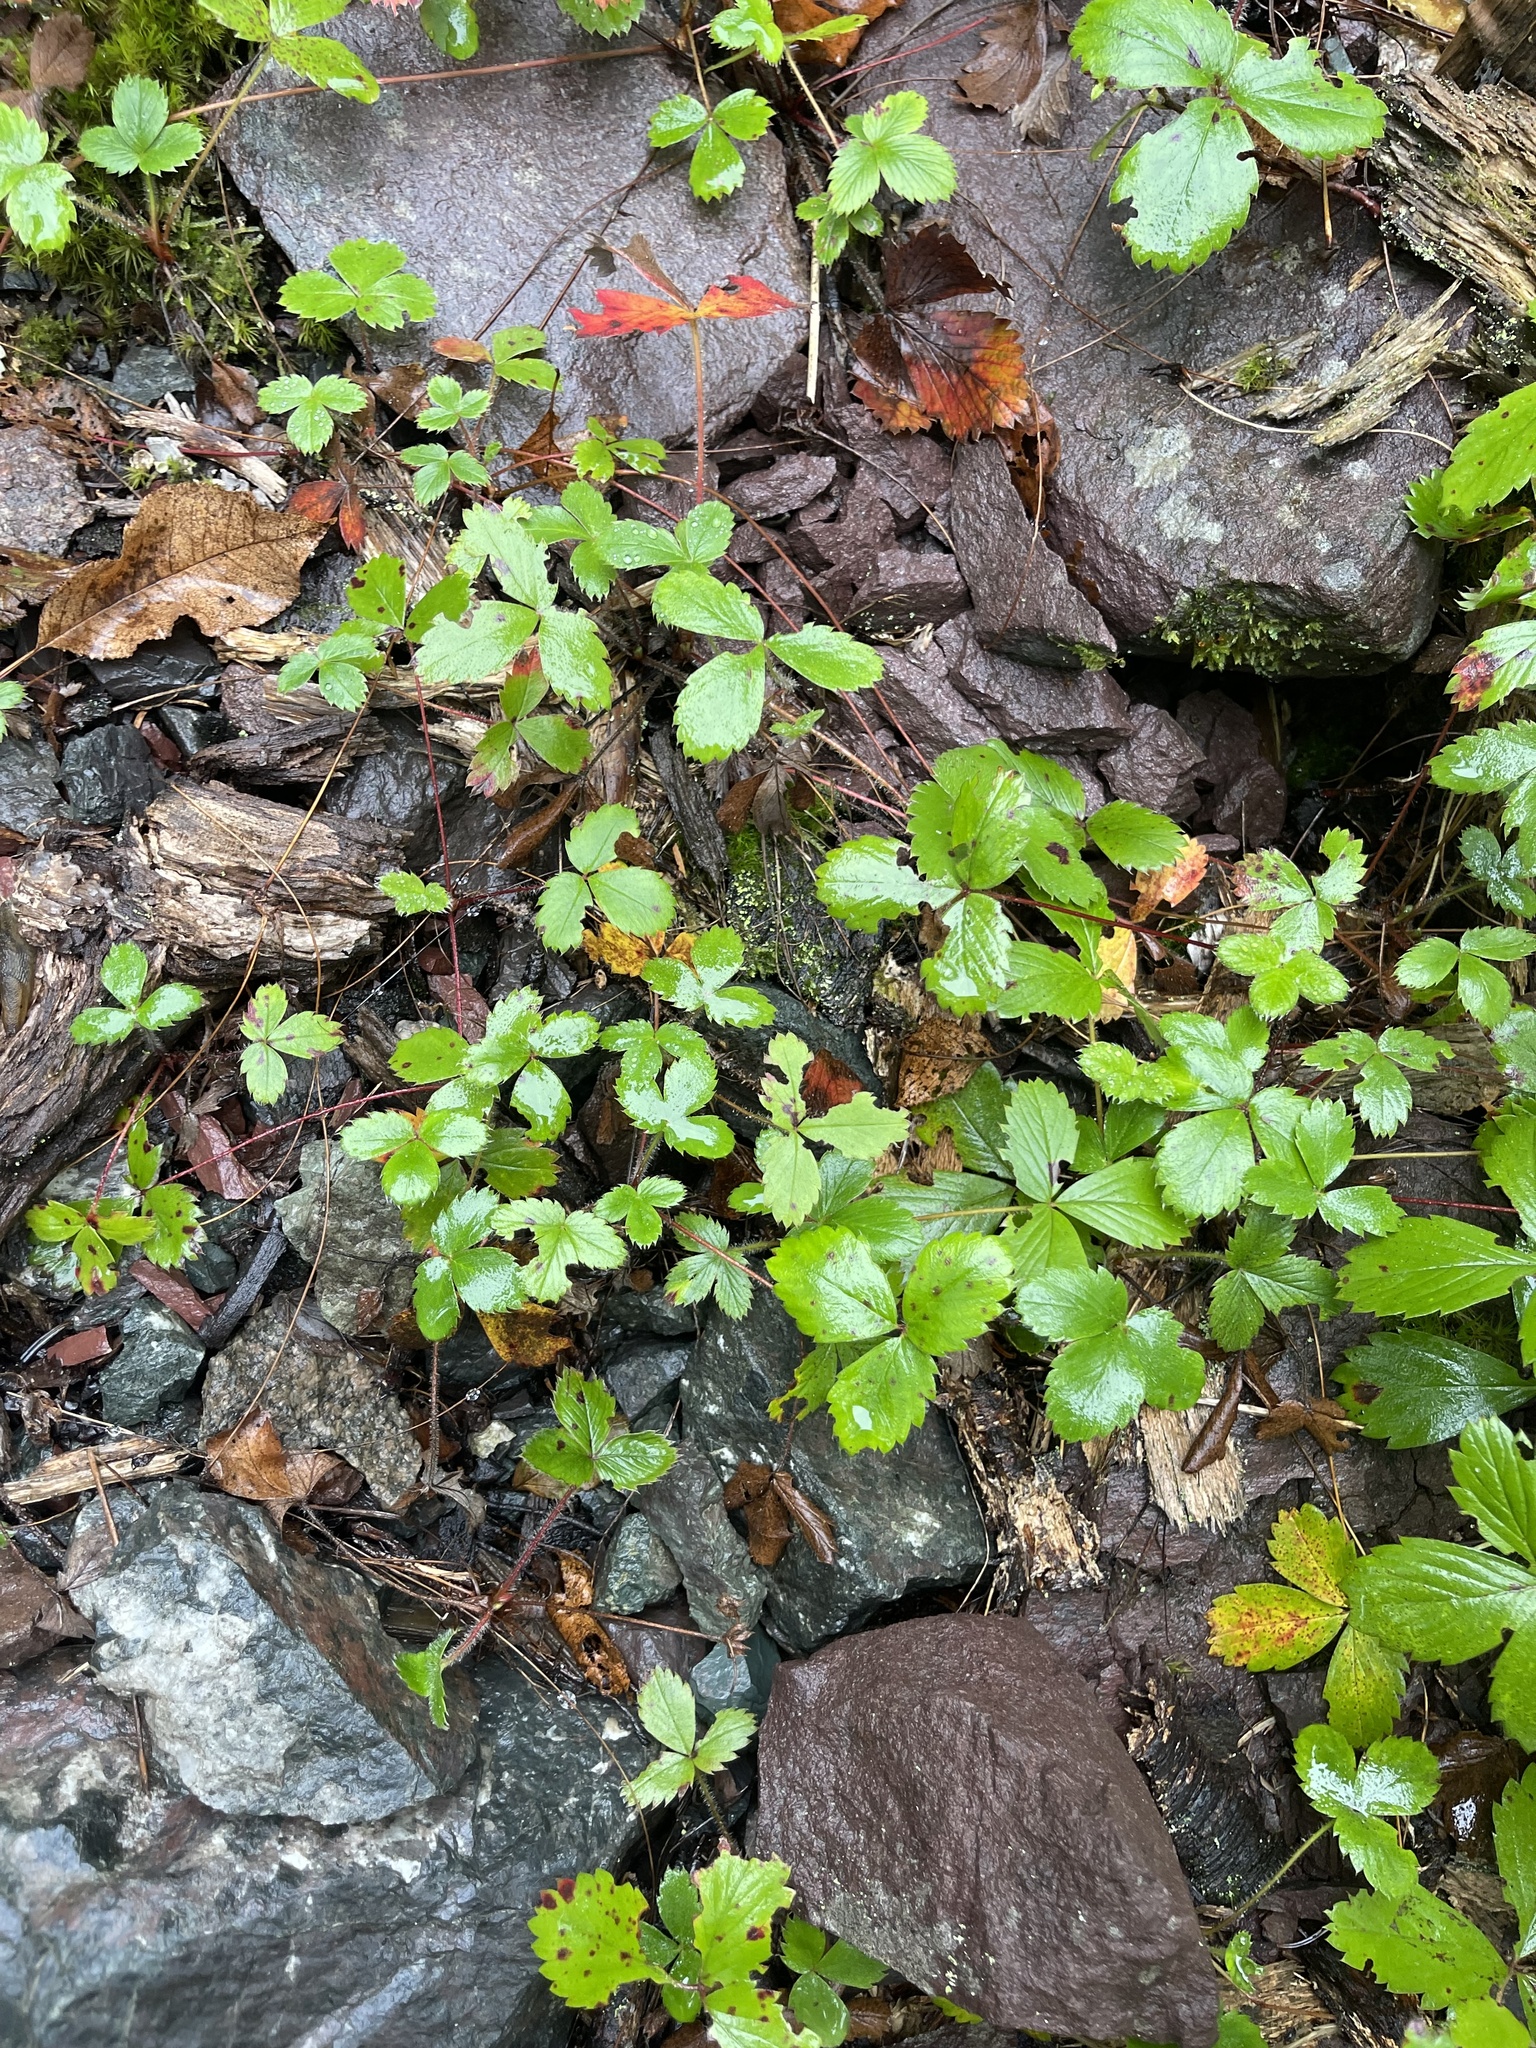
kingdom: Plantae
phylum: Tracheophyta
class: Magnoliopsida
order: Rosales
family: Rosaceae
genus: Fragaria
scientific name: Fragaria virginiana
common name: Thickleaved wild strawberry
